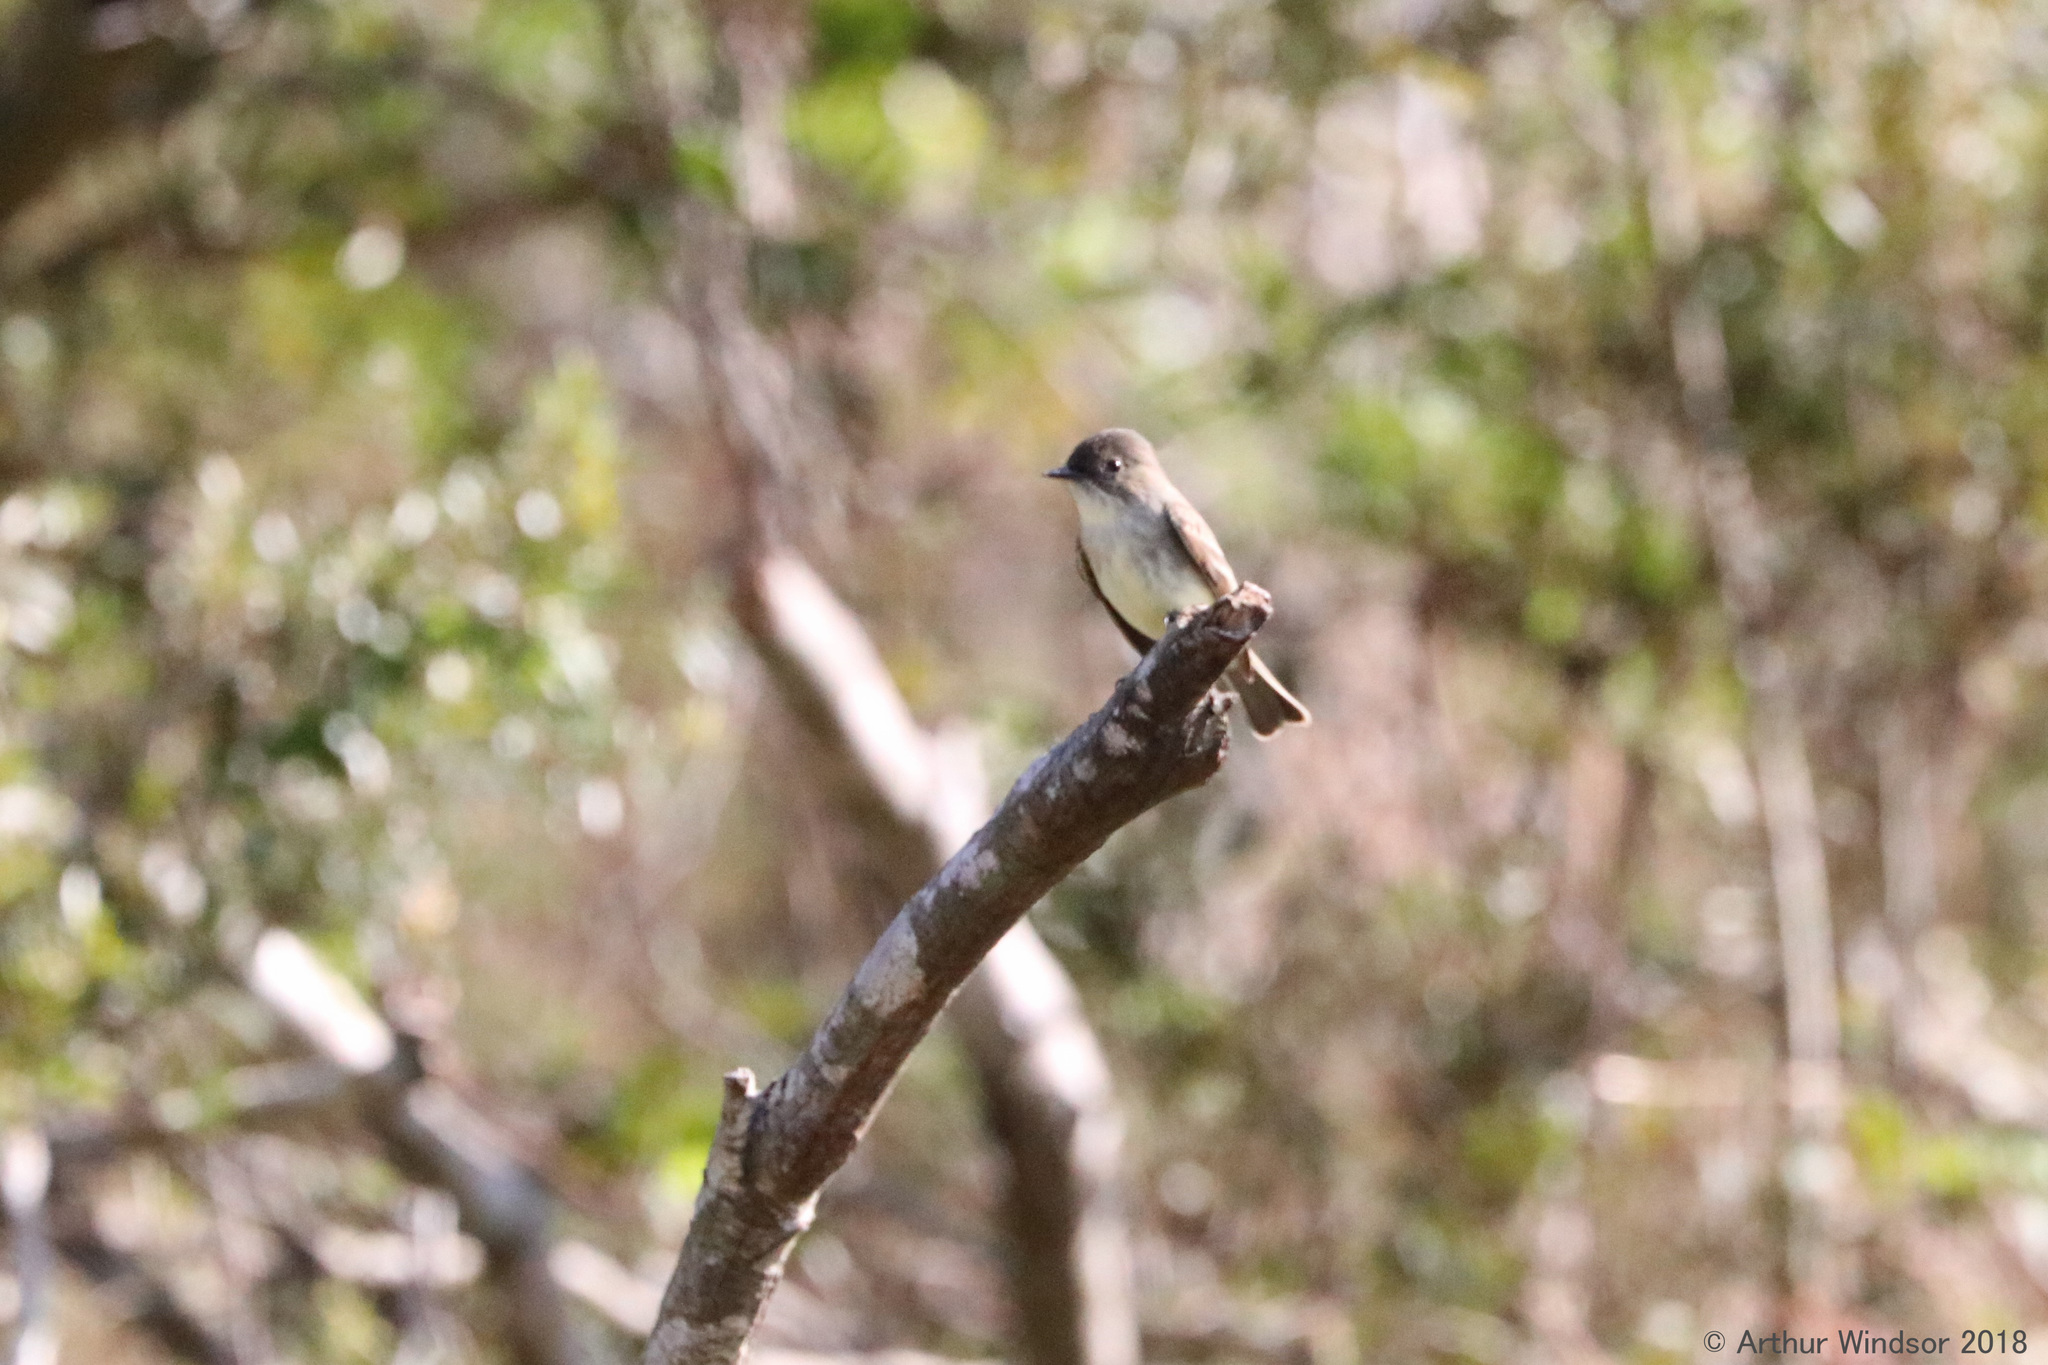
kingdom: Animalia
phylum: Chordata
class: Aves
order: Passeriformes
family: Tyrannidae
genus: Sayornis
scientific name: Sayornis phoebe
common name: Eastern phoebe
